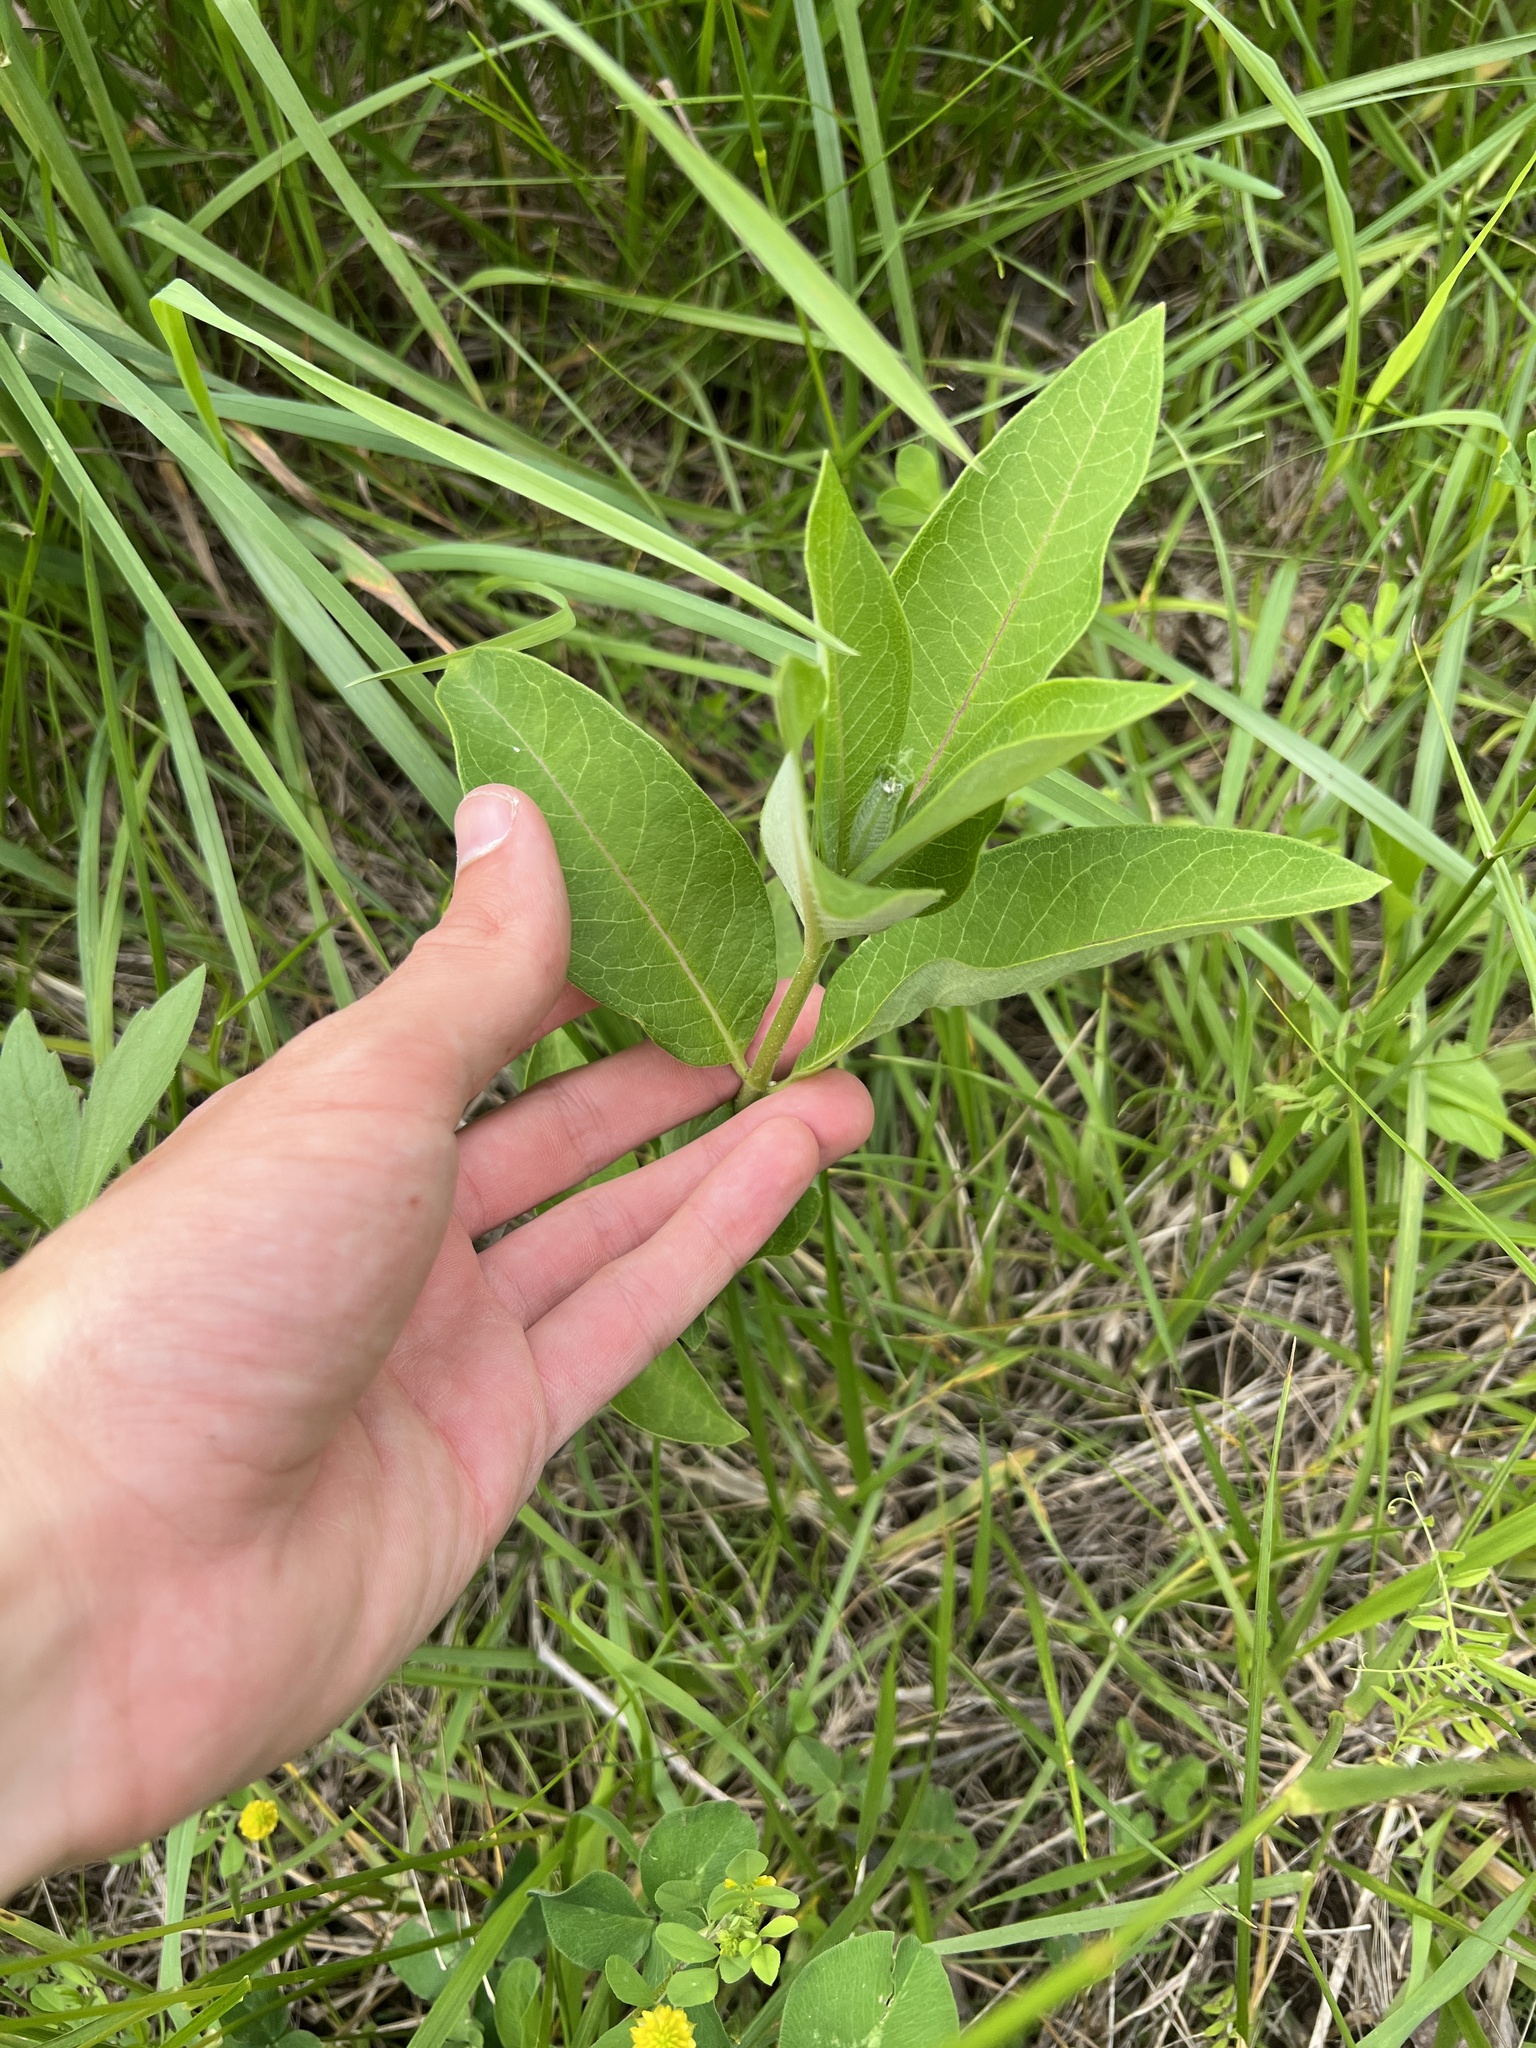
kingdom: Plantae
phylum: Tracheophyta
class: Magnoliopsida
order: Gentianales
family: Apocynaceae
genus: Asclepias
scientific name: Asclepias syriaca
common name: Common milkweed
